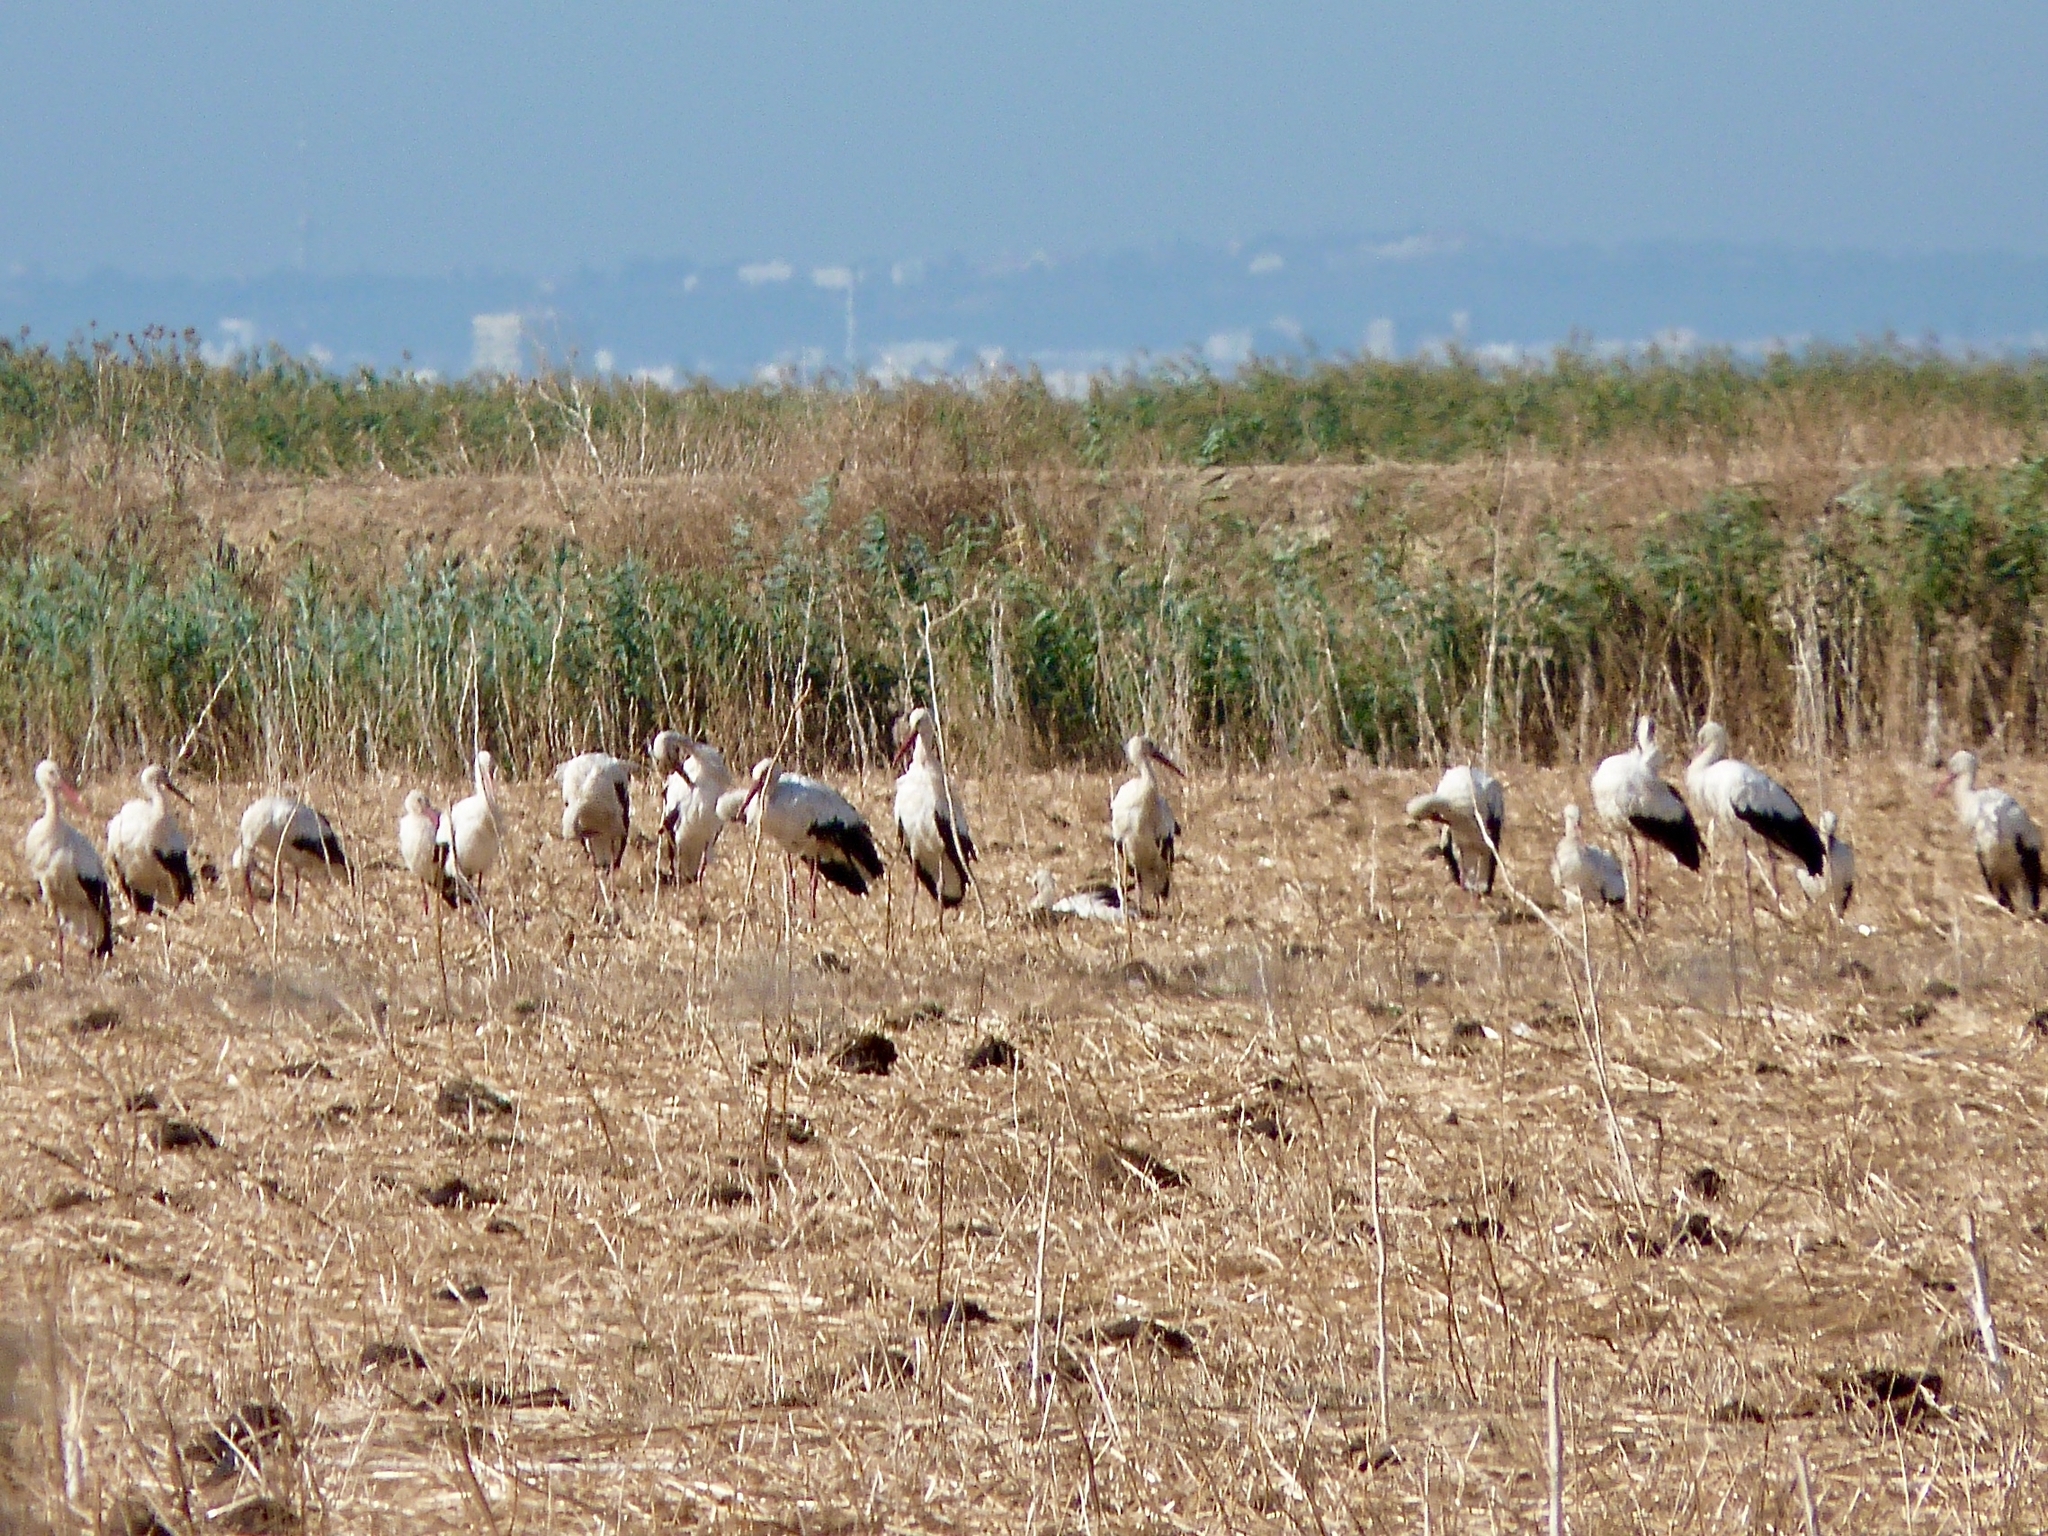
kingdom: Animalia
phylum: Chordata
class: Aves
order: Ciconiiformes
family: Ciconiidae
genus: Ciconia
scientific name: Ciconia ciconia
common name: White stork
